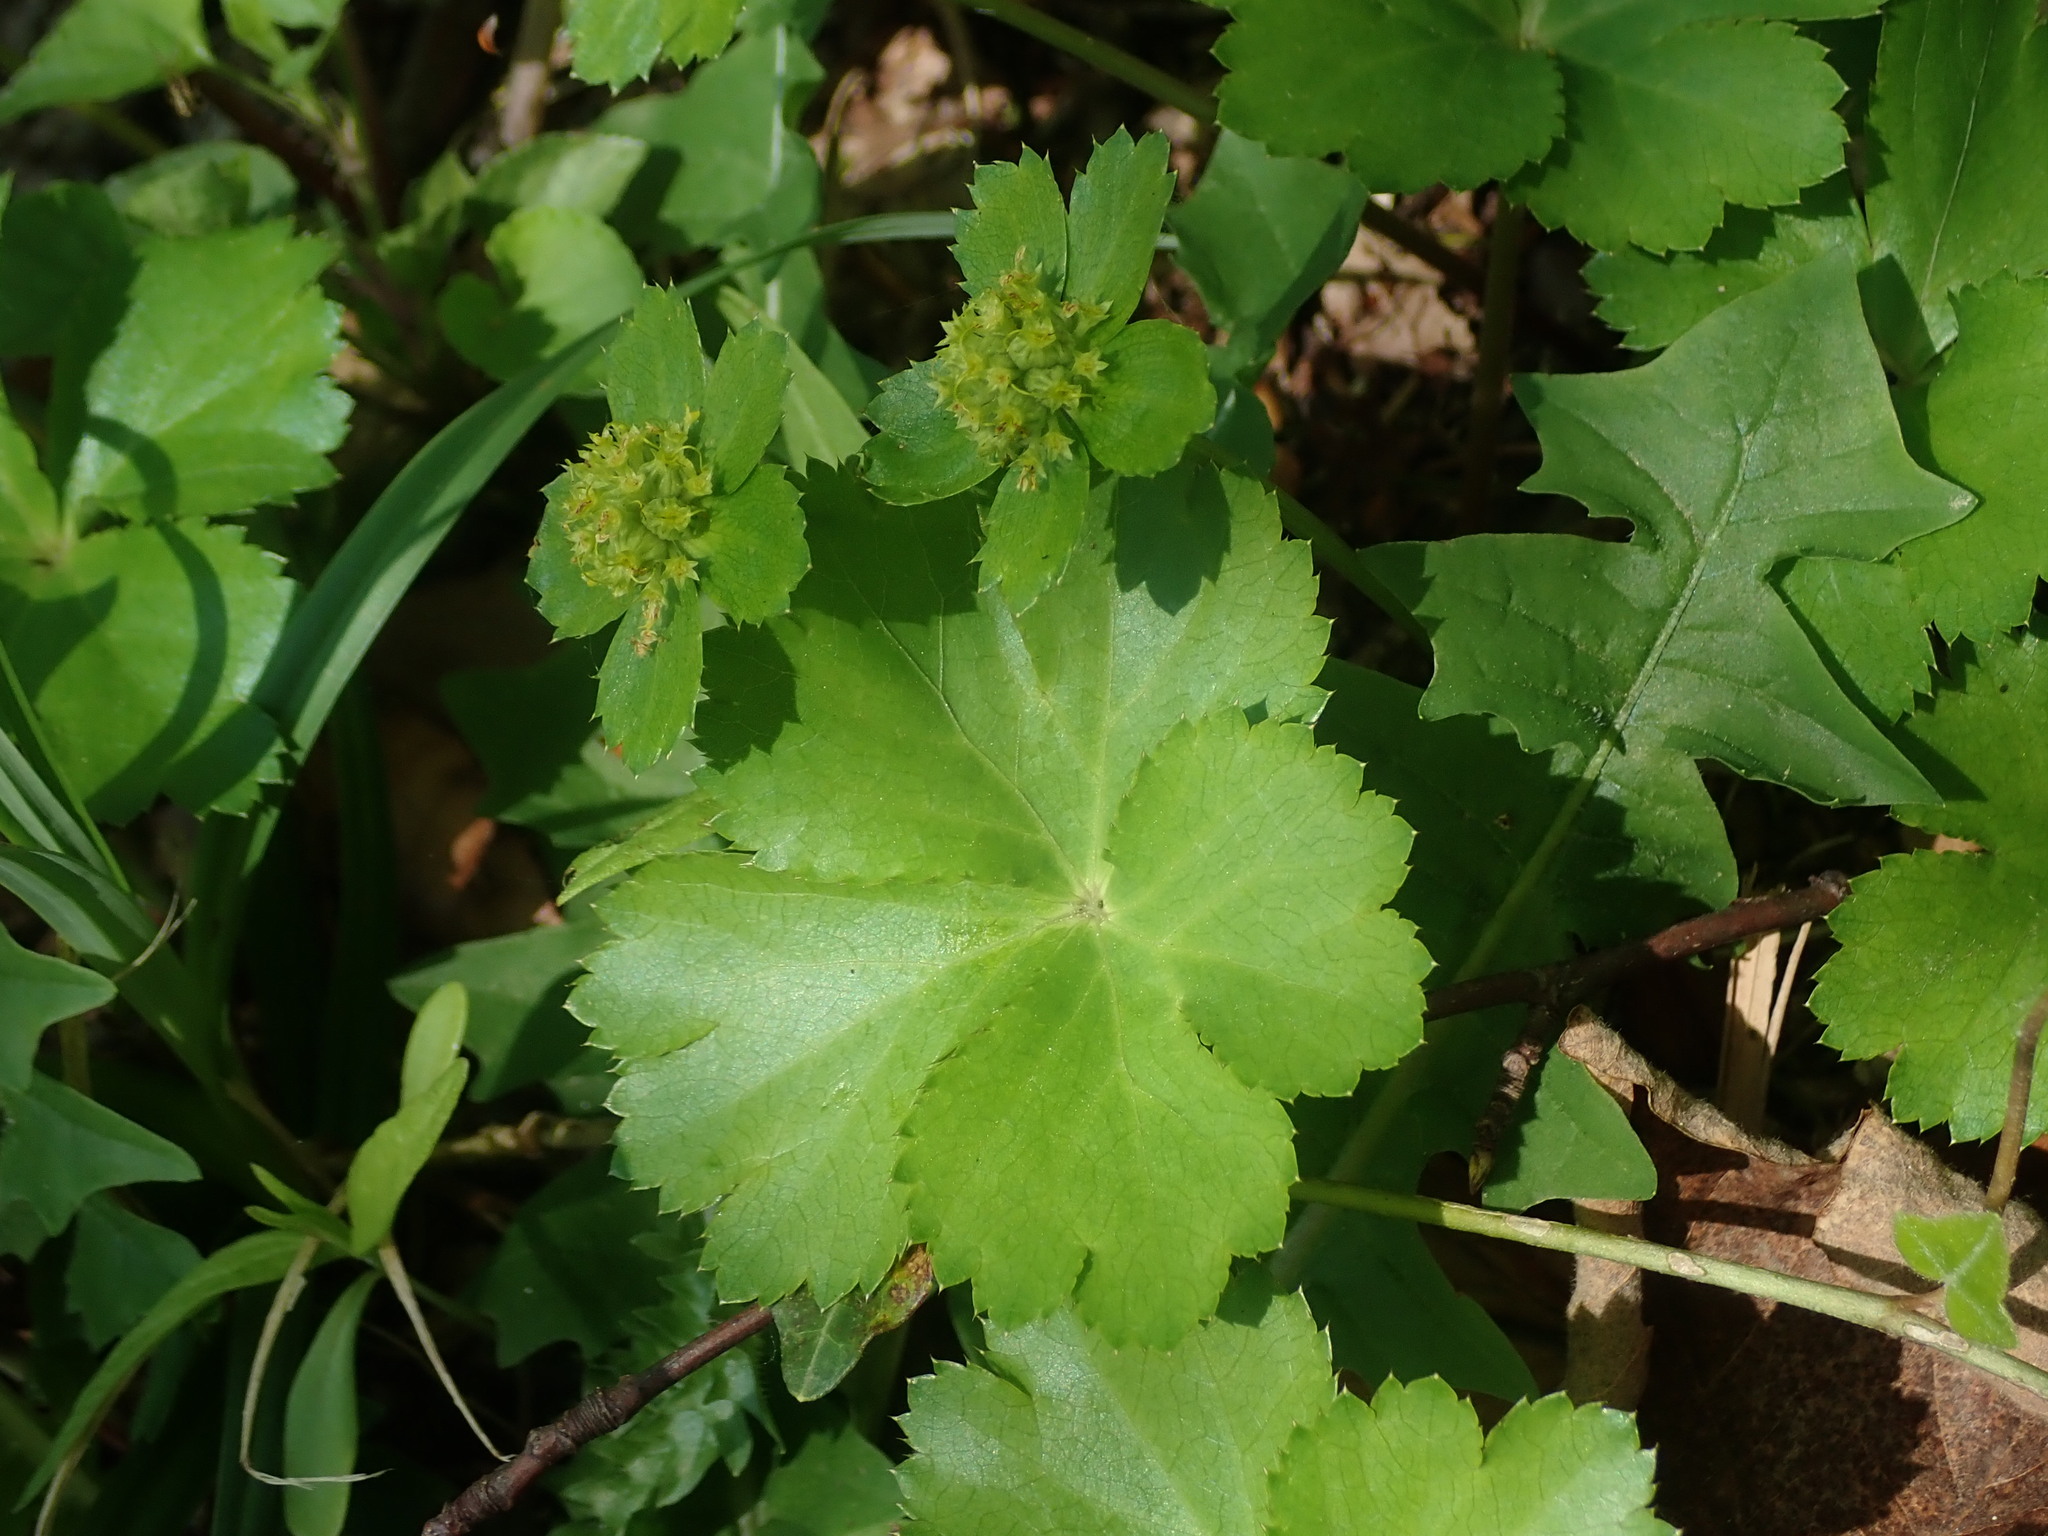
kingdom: Plantae
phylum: Tracheophyta
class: Magnoliopsida
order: Apiales
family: Apiaceae
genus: Sanicula
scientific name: Sanicula epipactis
